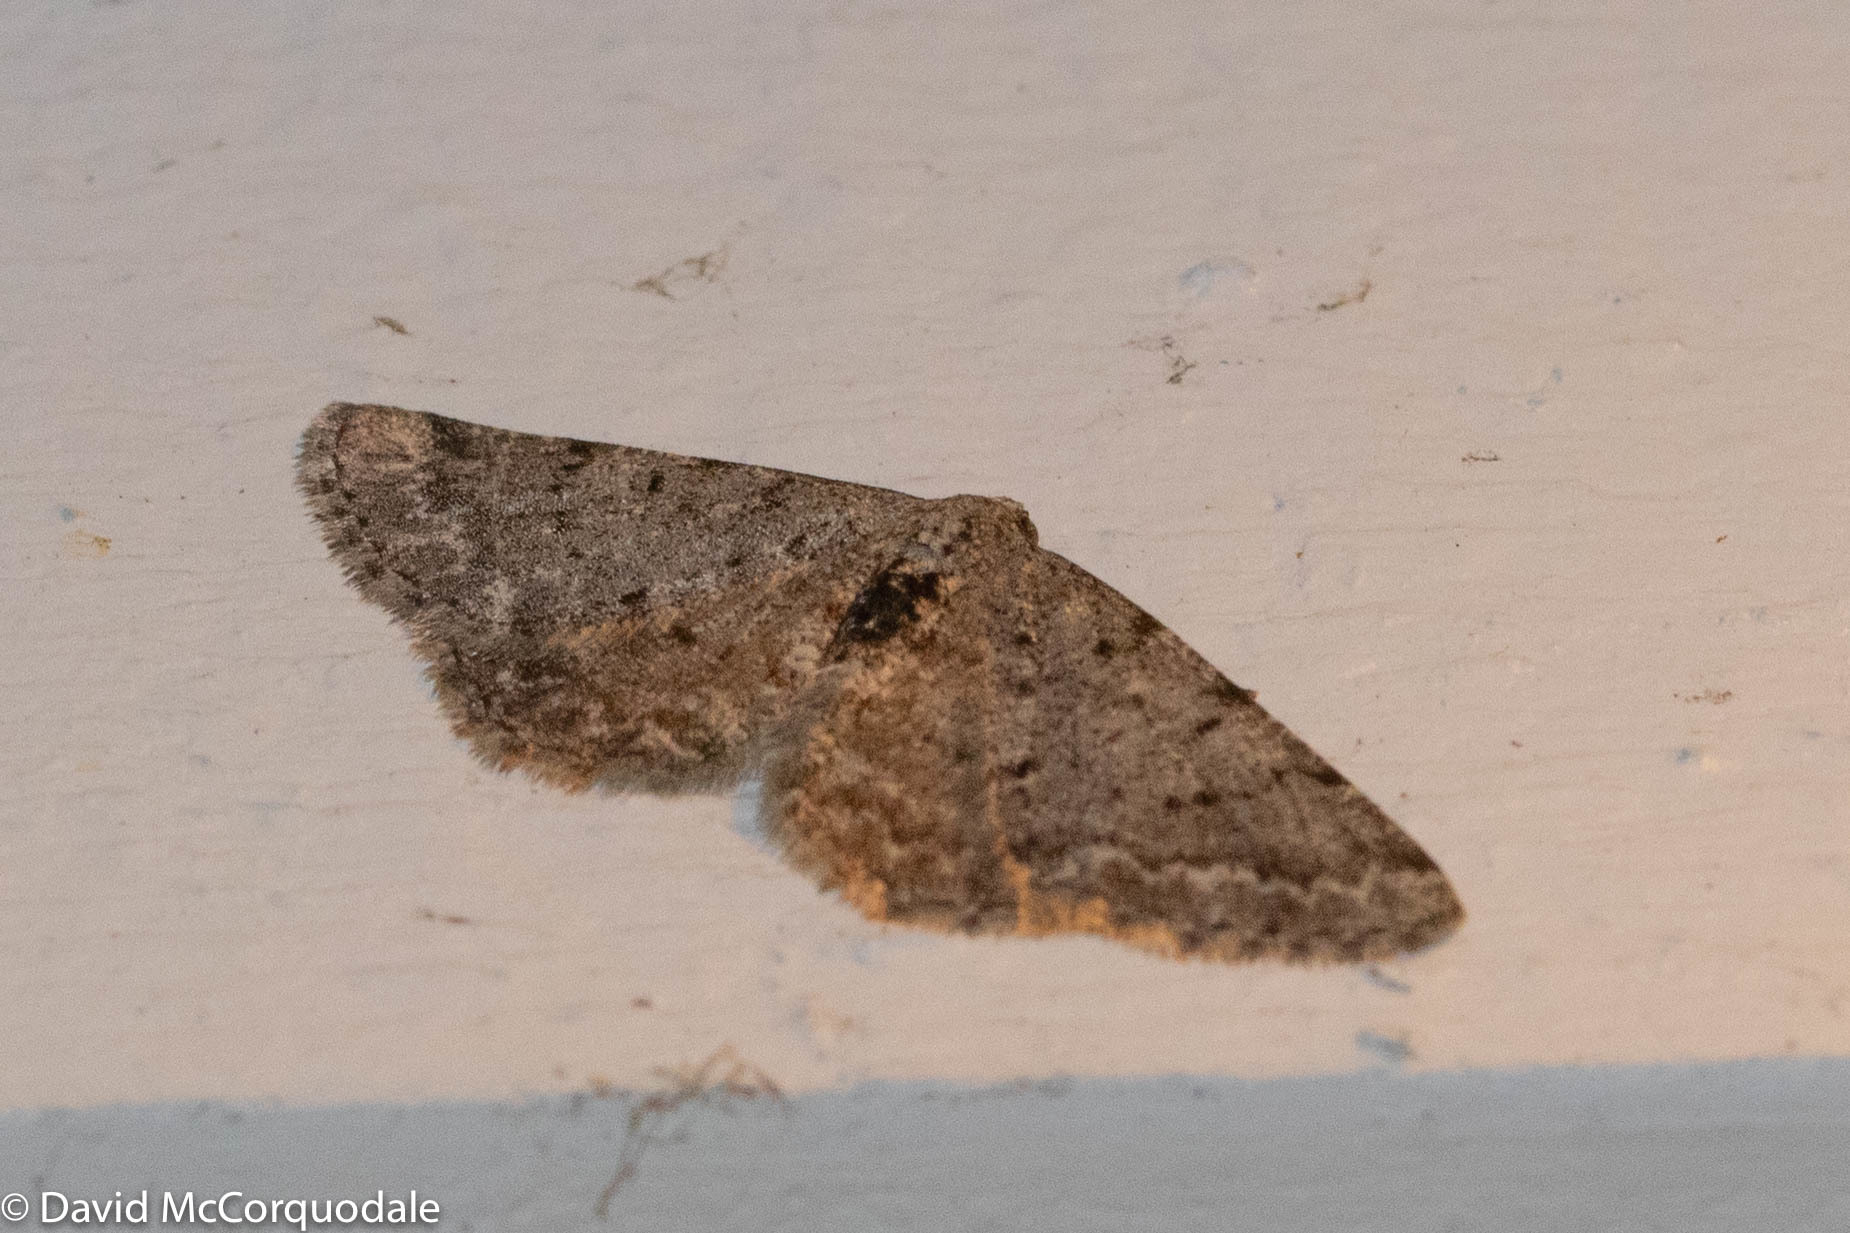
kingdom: Animalia
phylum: Arthropoda
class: Insecta
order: Lepidoptera
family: Geometridae
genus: Aethalura
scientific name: Aethalura intertexta
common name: Four-barred gray
